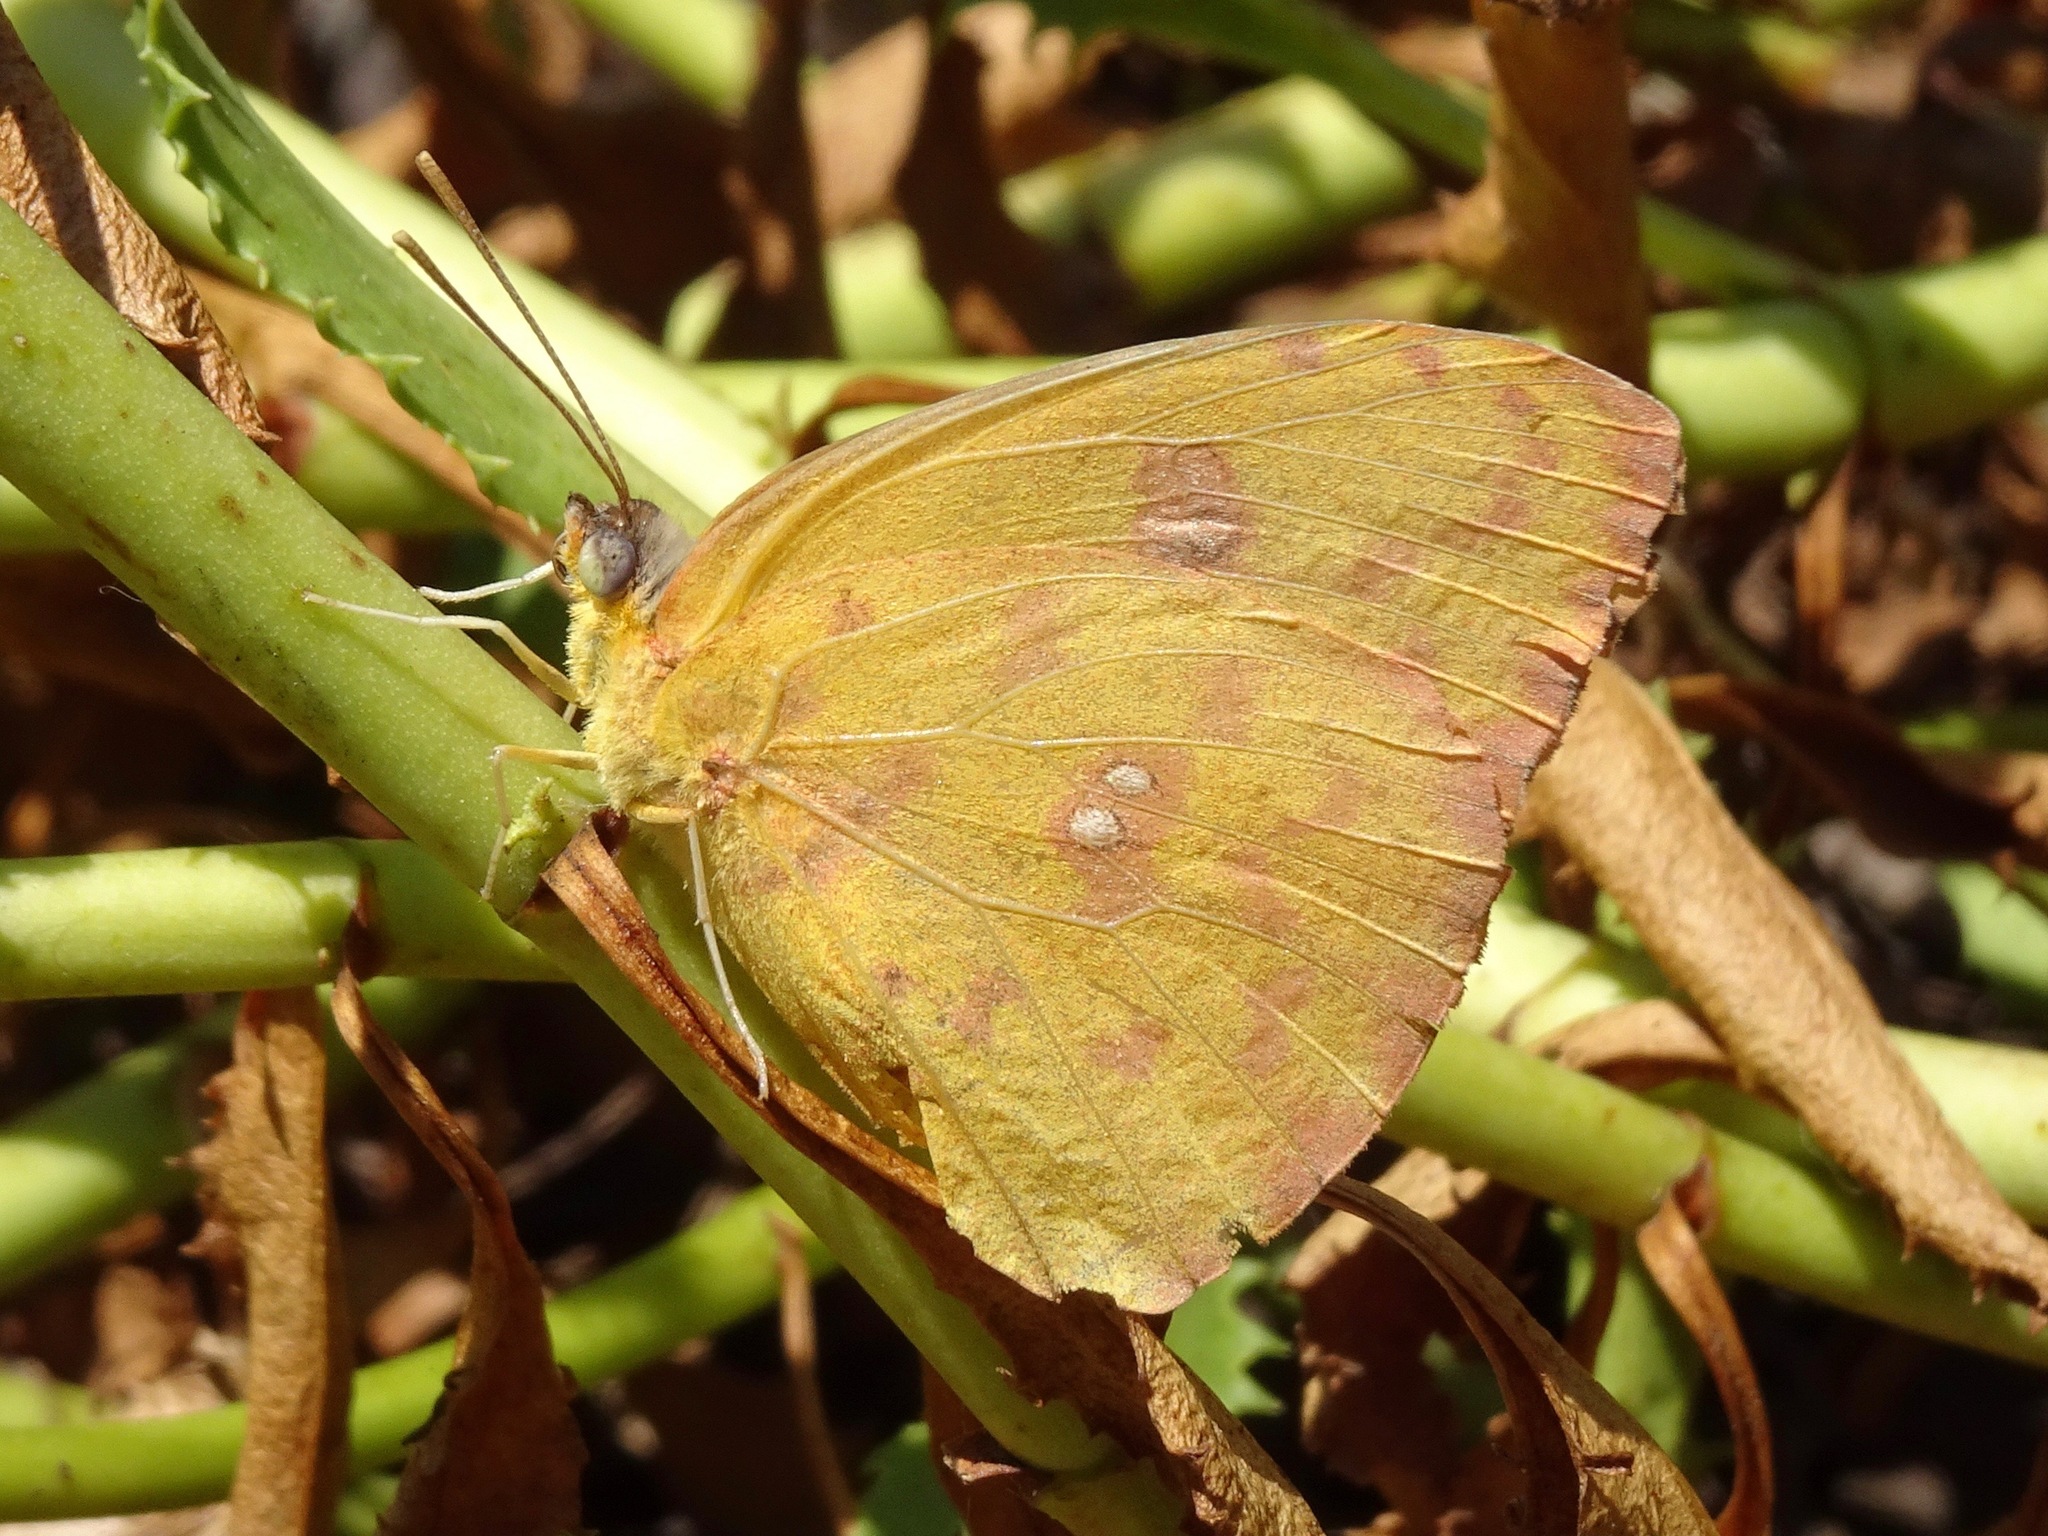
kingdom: Animalia
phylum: Arthropoda
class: Insecta
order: Lepidoptera
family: Pieridae
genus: Phoebis
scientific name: Phoebis sennae
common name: Cloudless sulphur
